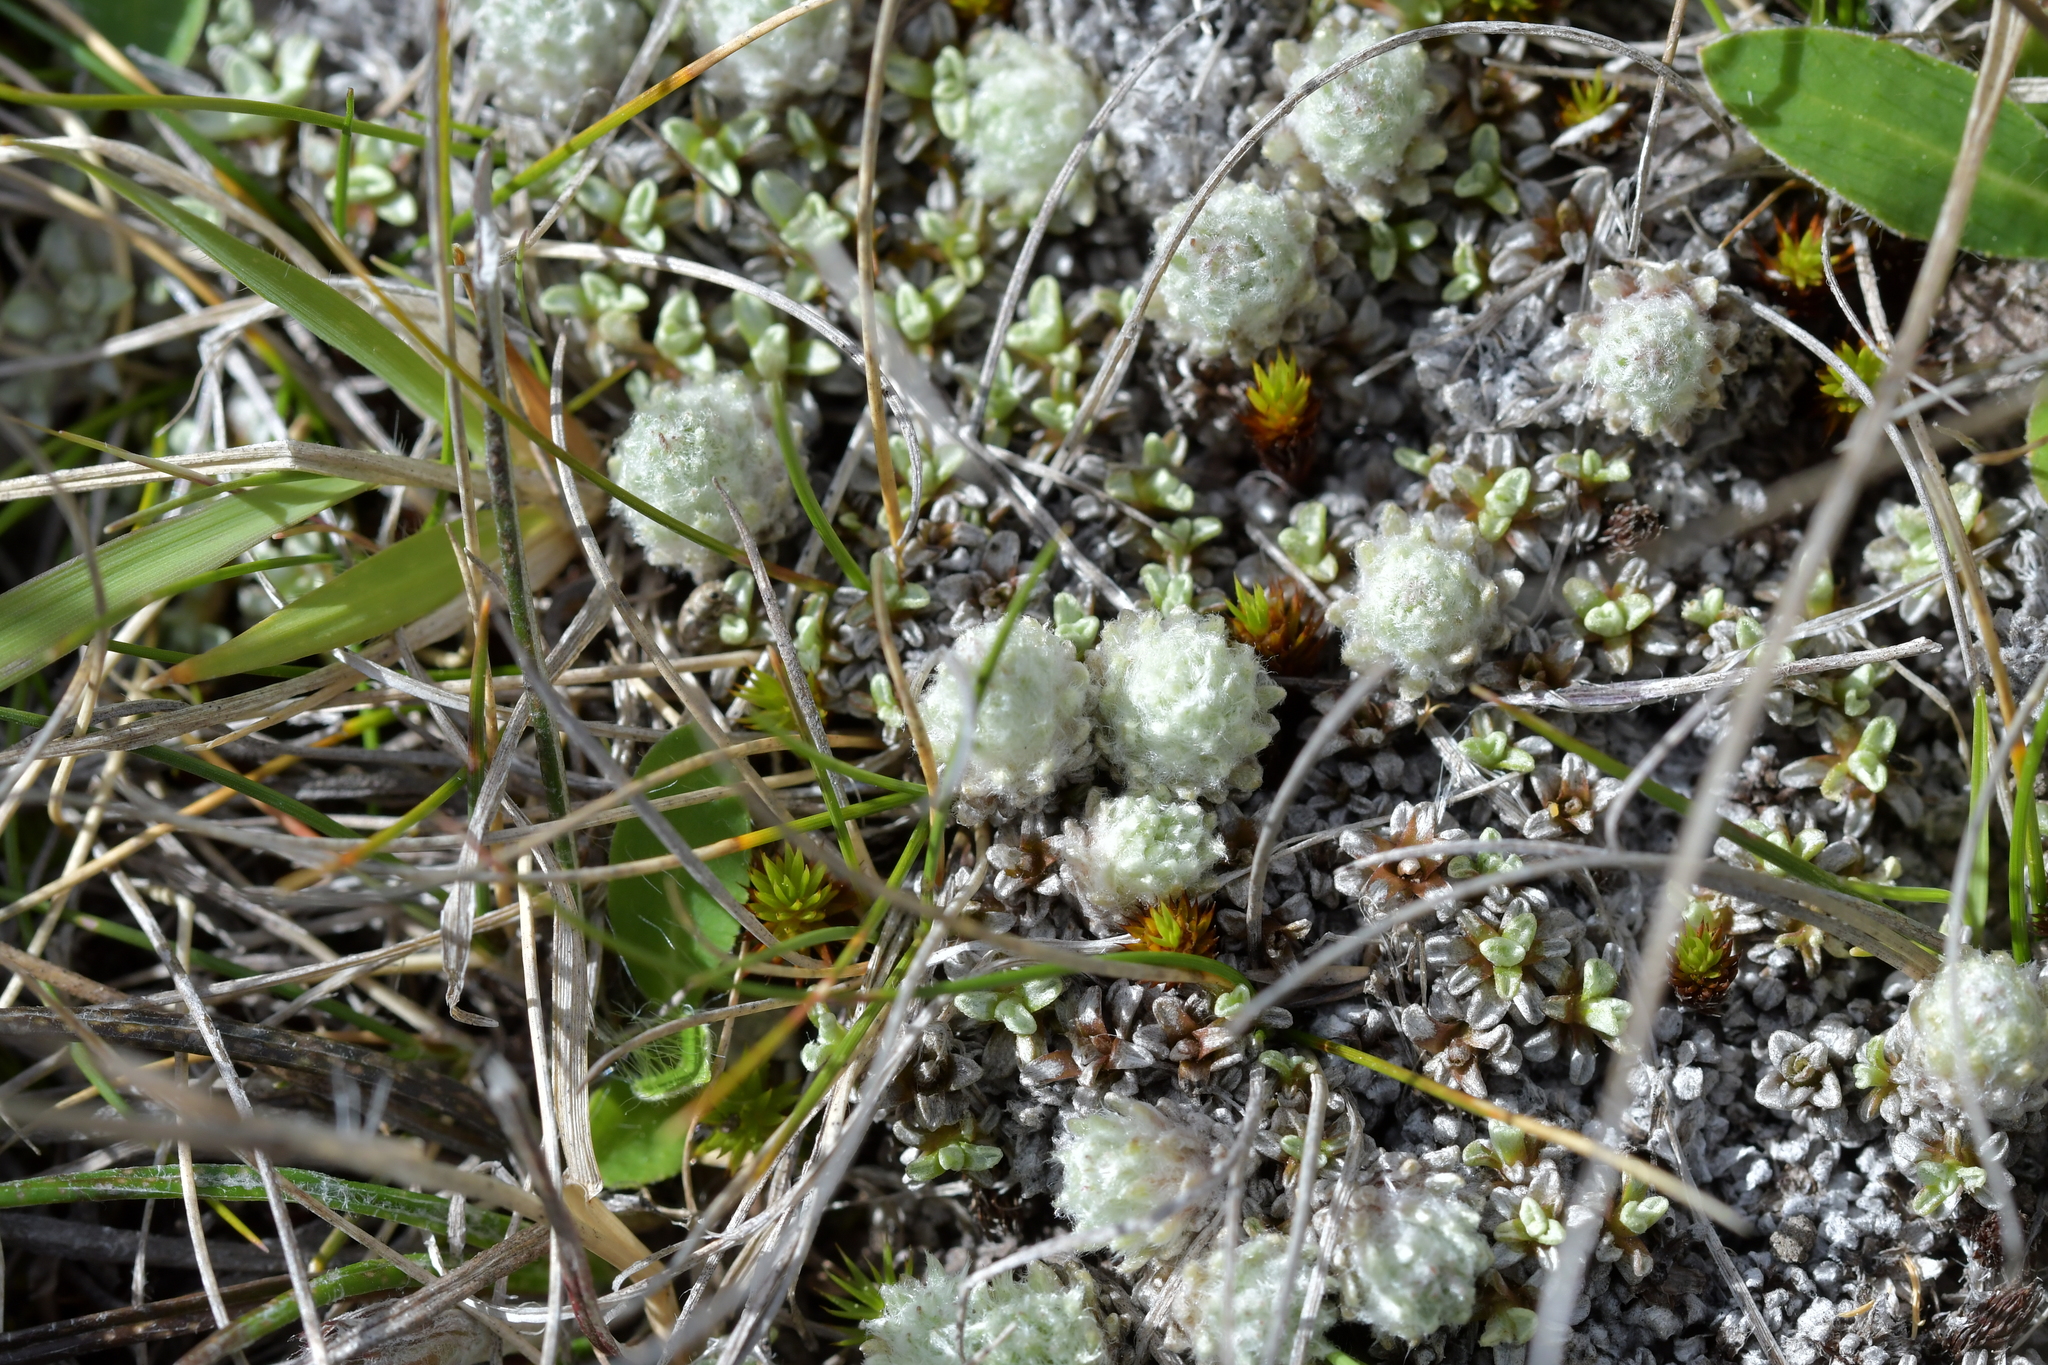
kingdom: Plantae
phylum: Tracheophyta
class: Magnoliopsida
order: Asterales
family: Asteraceae
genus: Raoulia
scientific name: Raoulia subsericea
